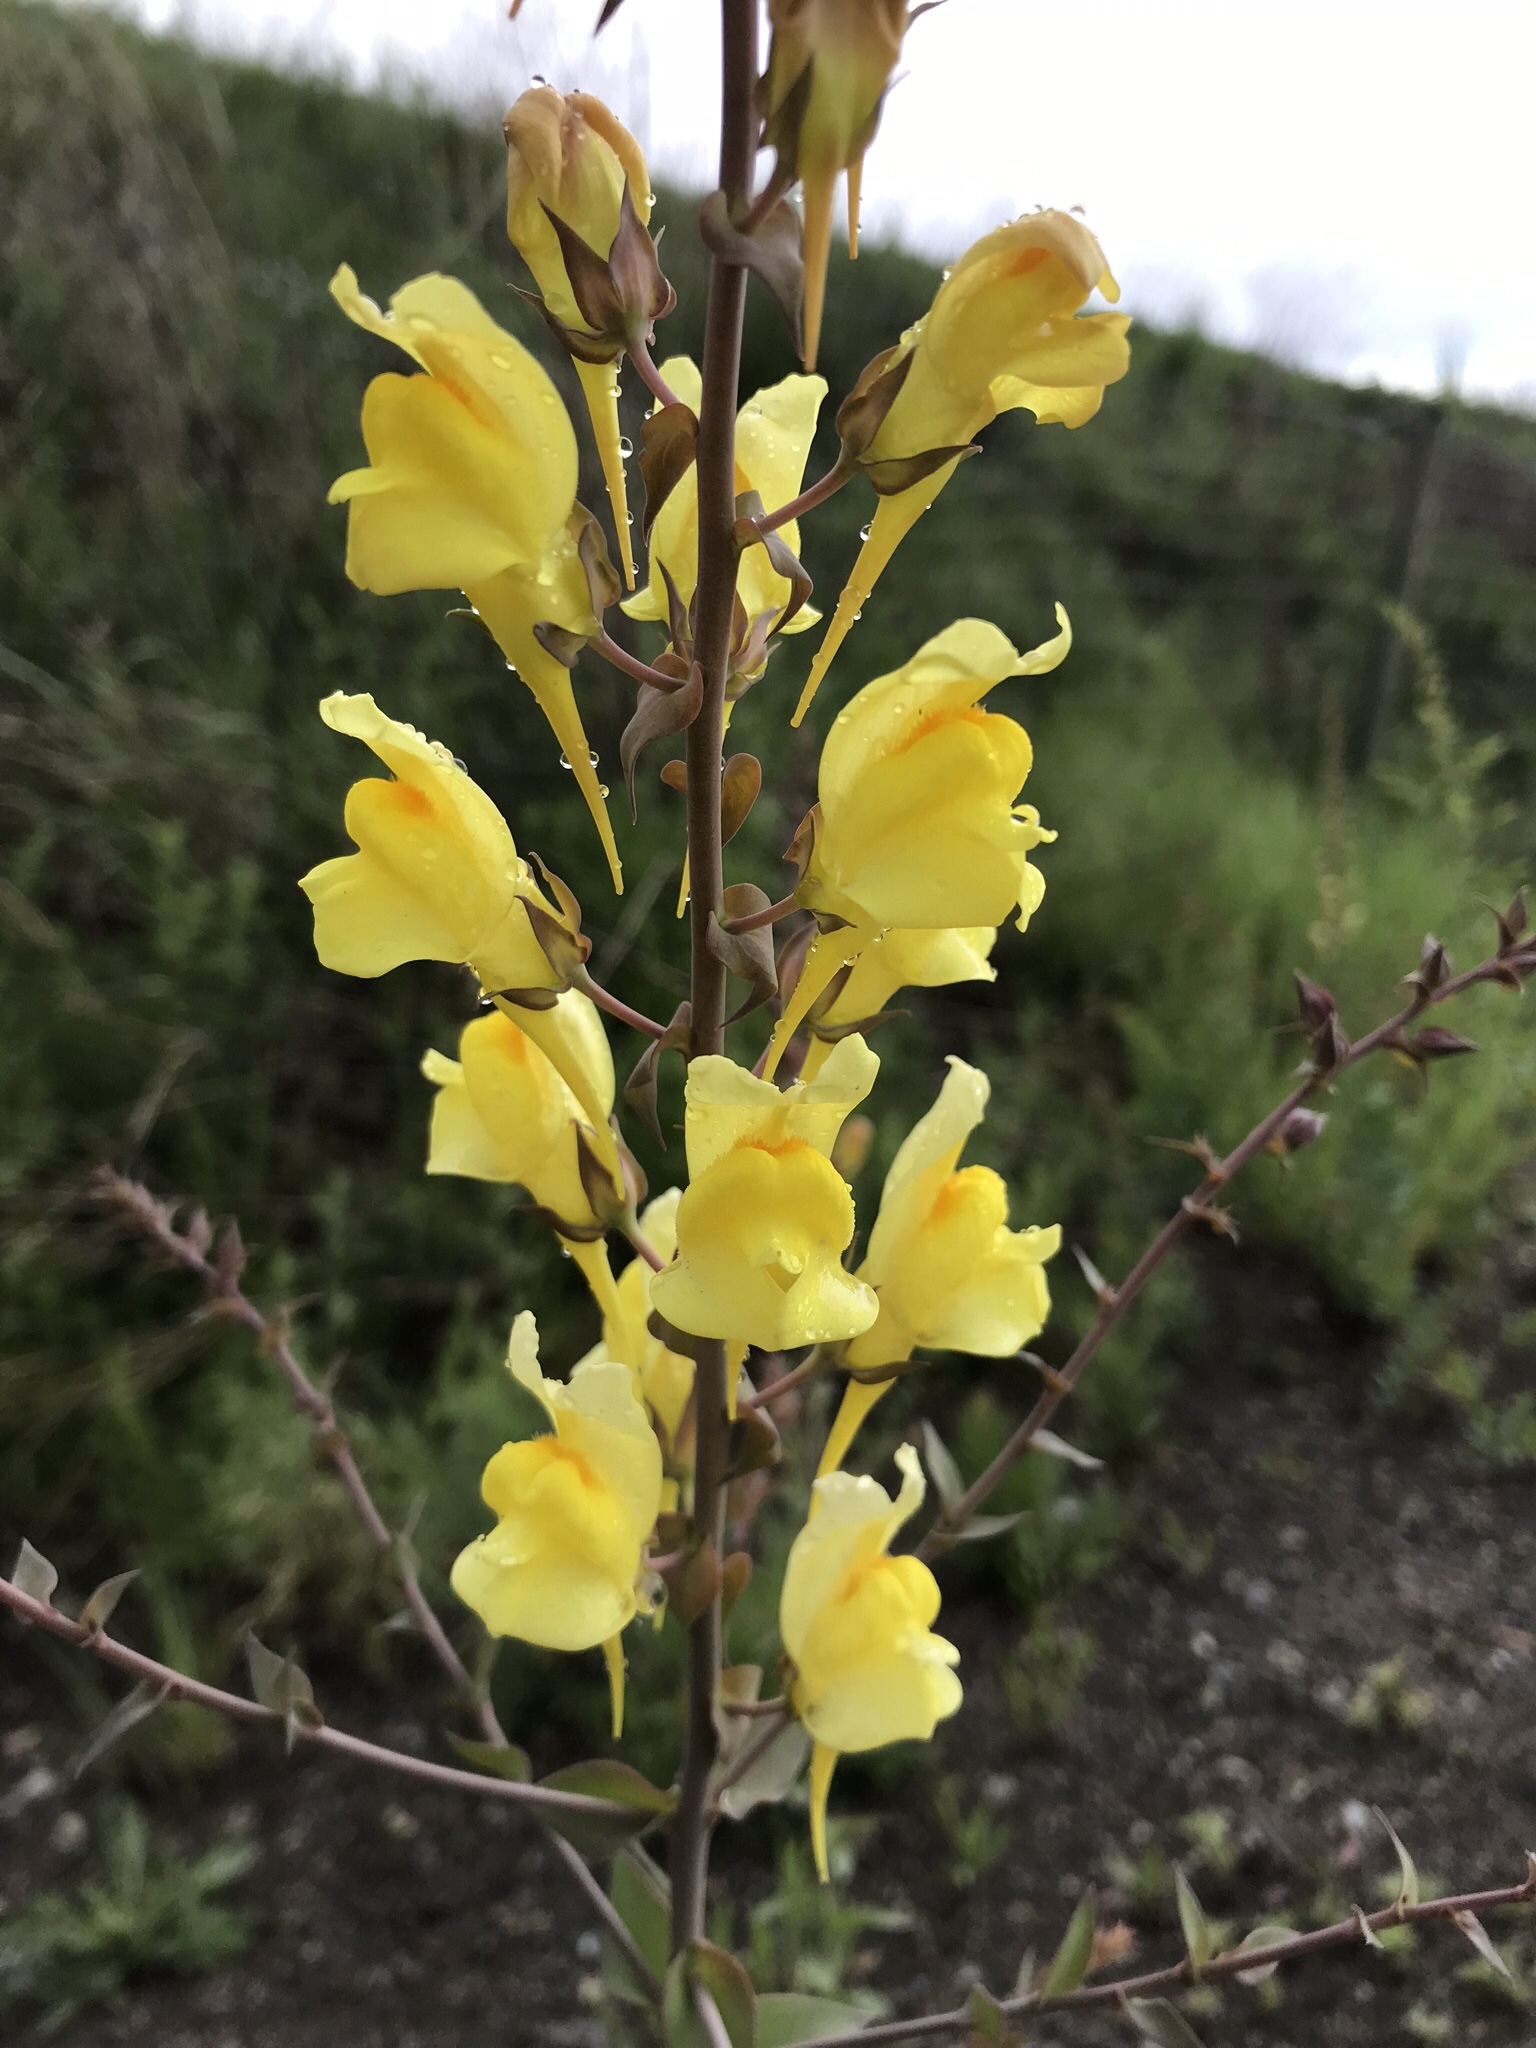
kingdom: Plantae
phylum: Tracheophyta
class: Magnoliopsida
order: Lamiales
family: Plantaginaceae
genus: Linaria
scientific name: Linaria dalmatica
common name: Dalmatian toadflax
